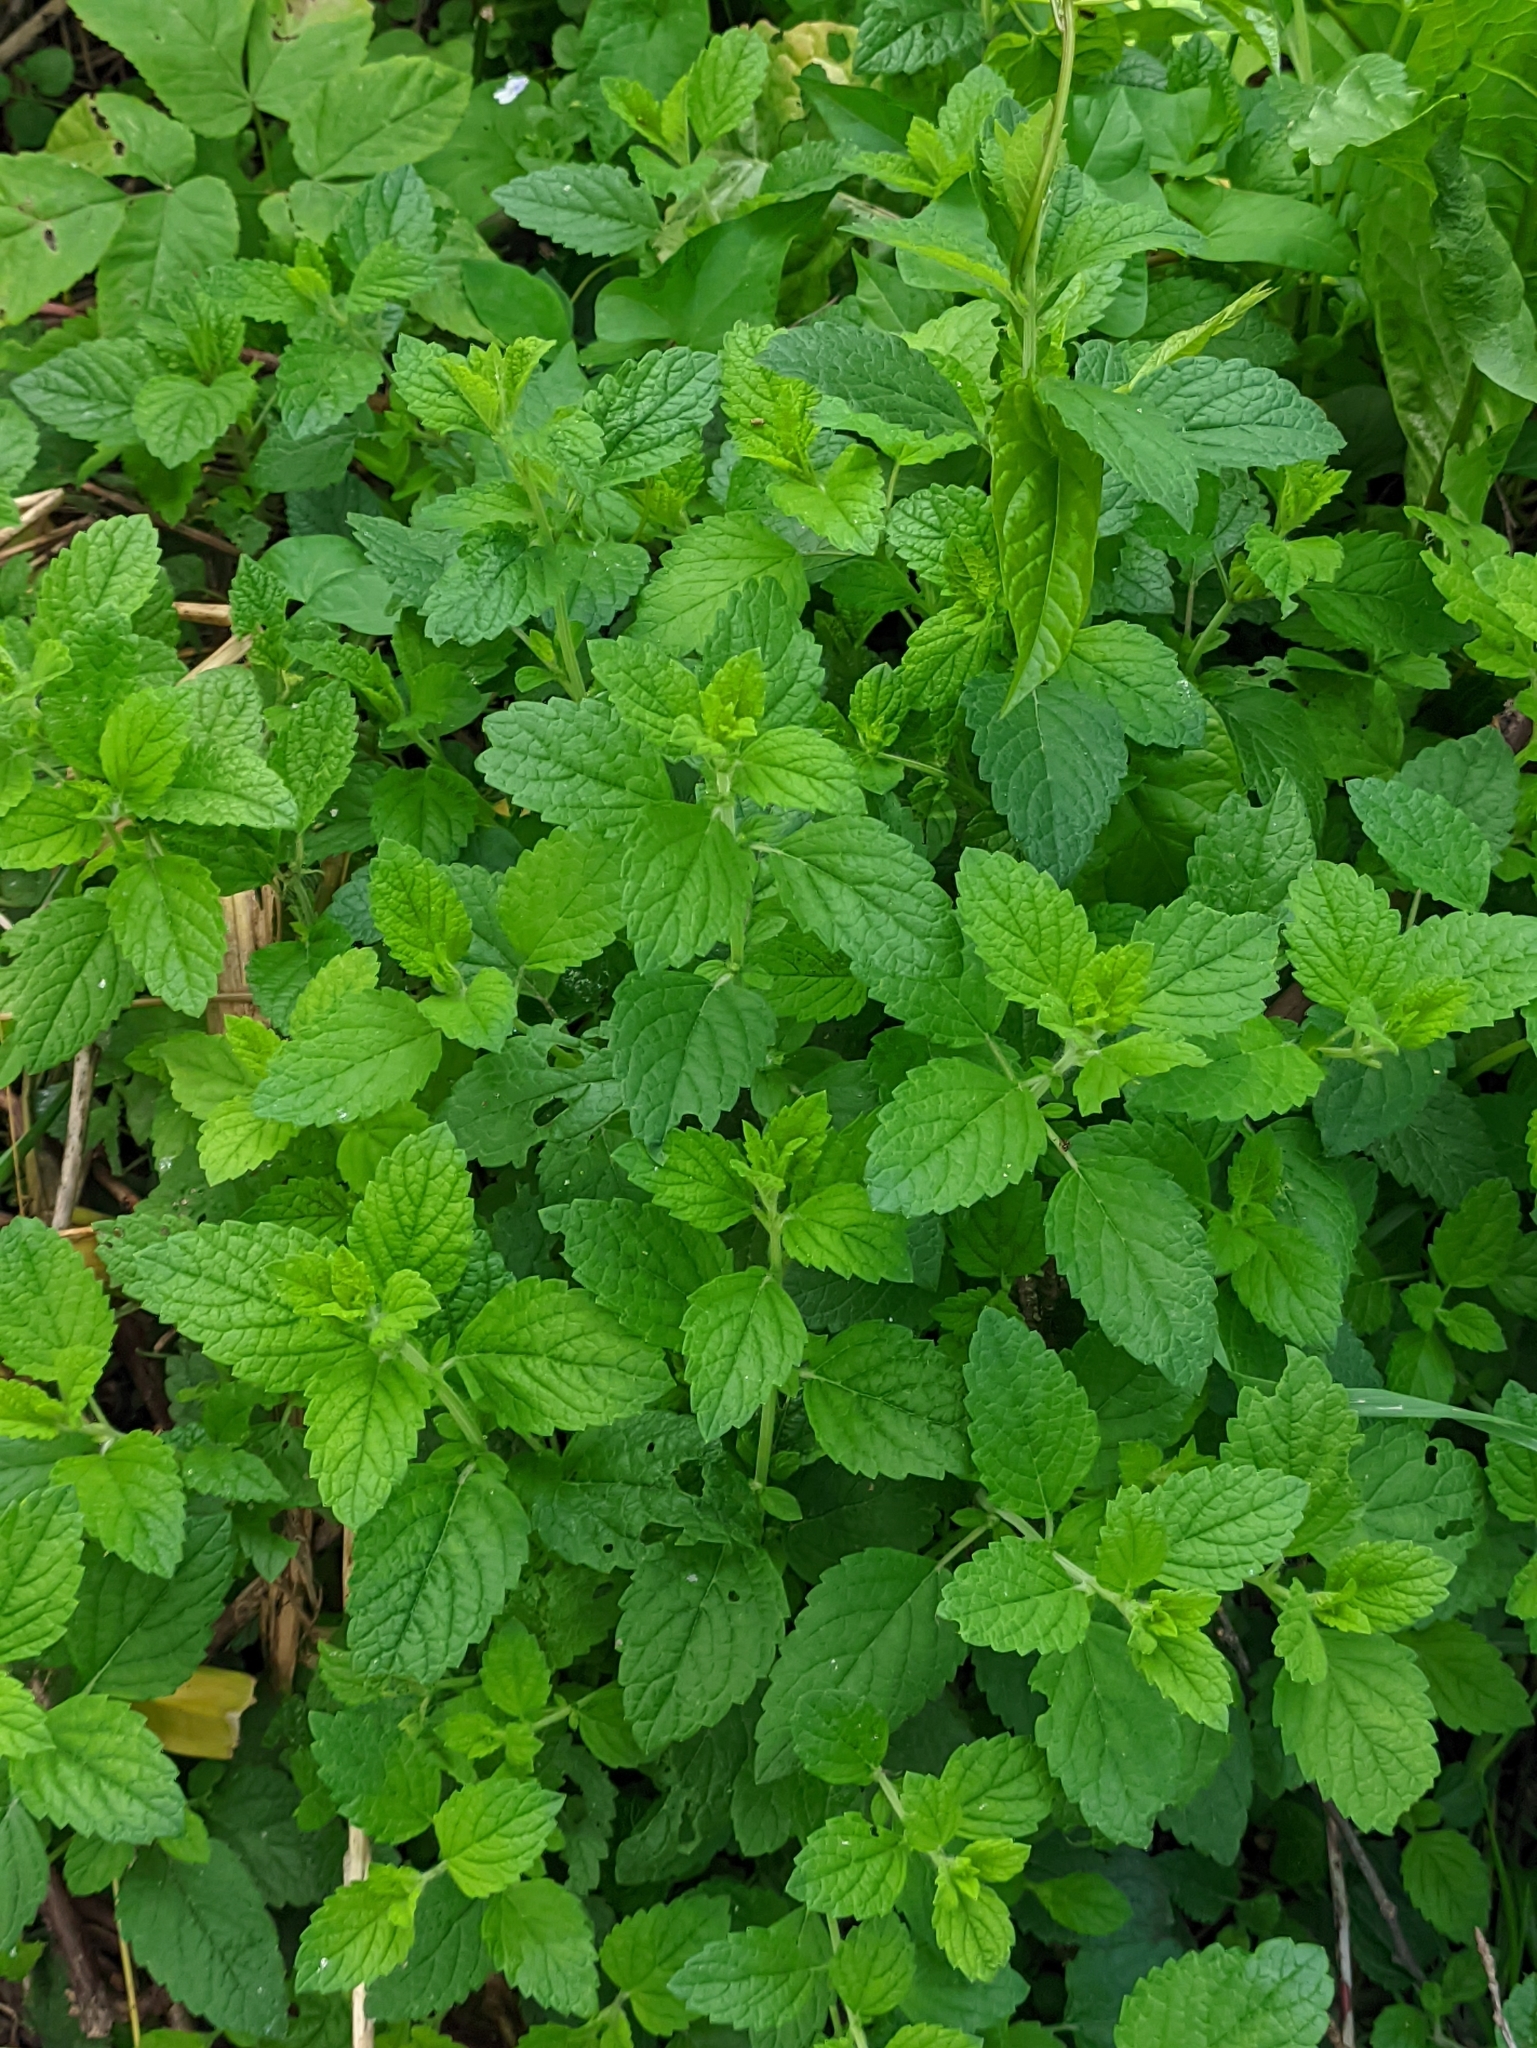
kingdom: Plantae
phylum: Tracheophyta
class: Magnoliopsida
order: Lamiales
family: Lamiaceae
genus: Melissa
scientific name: Melissa officinalis
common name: Balm
